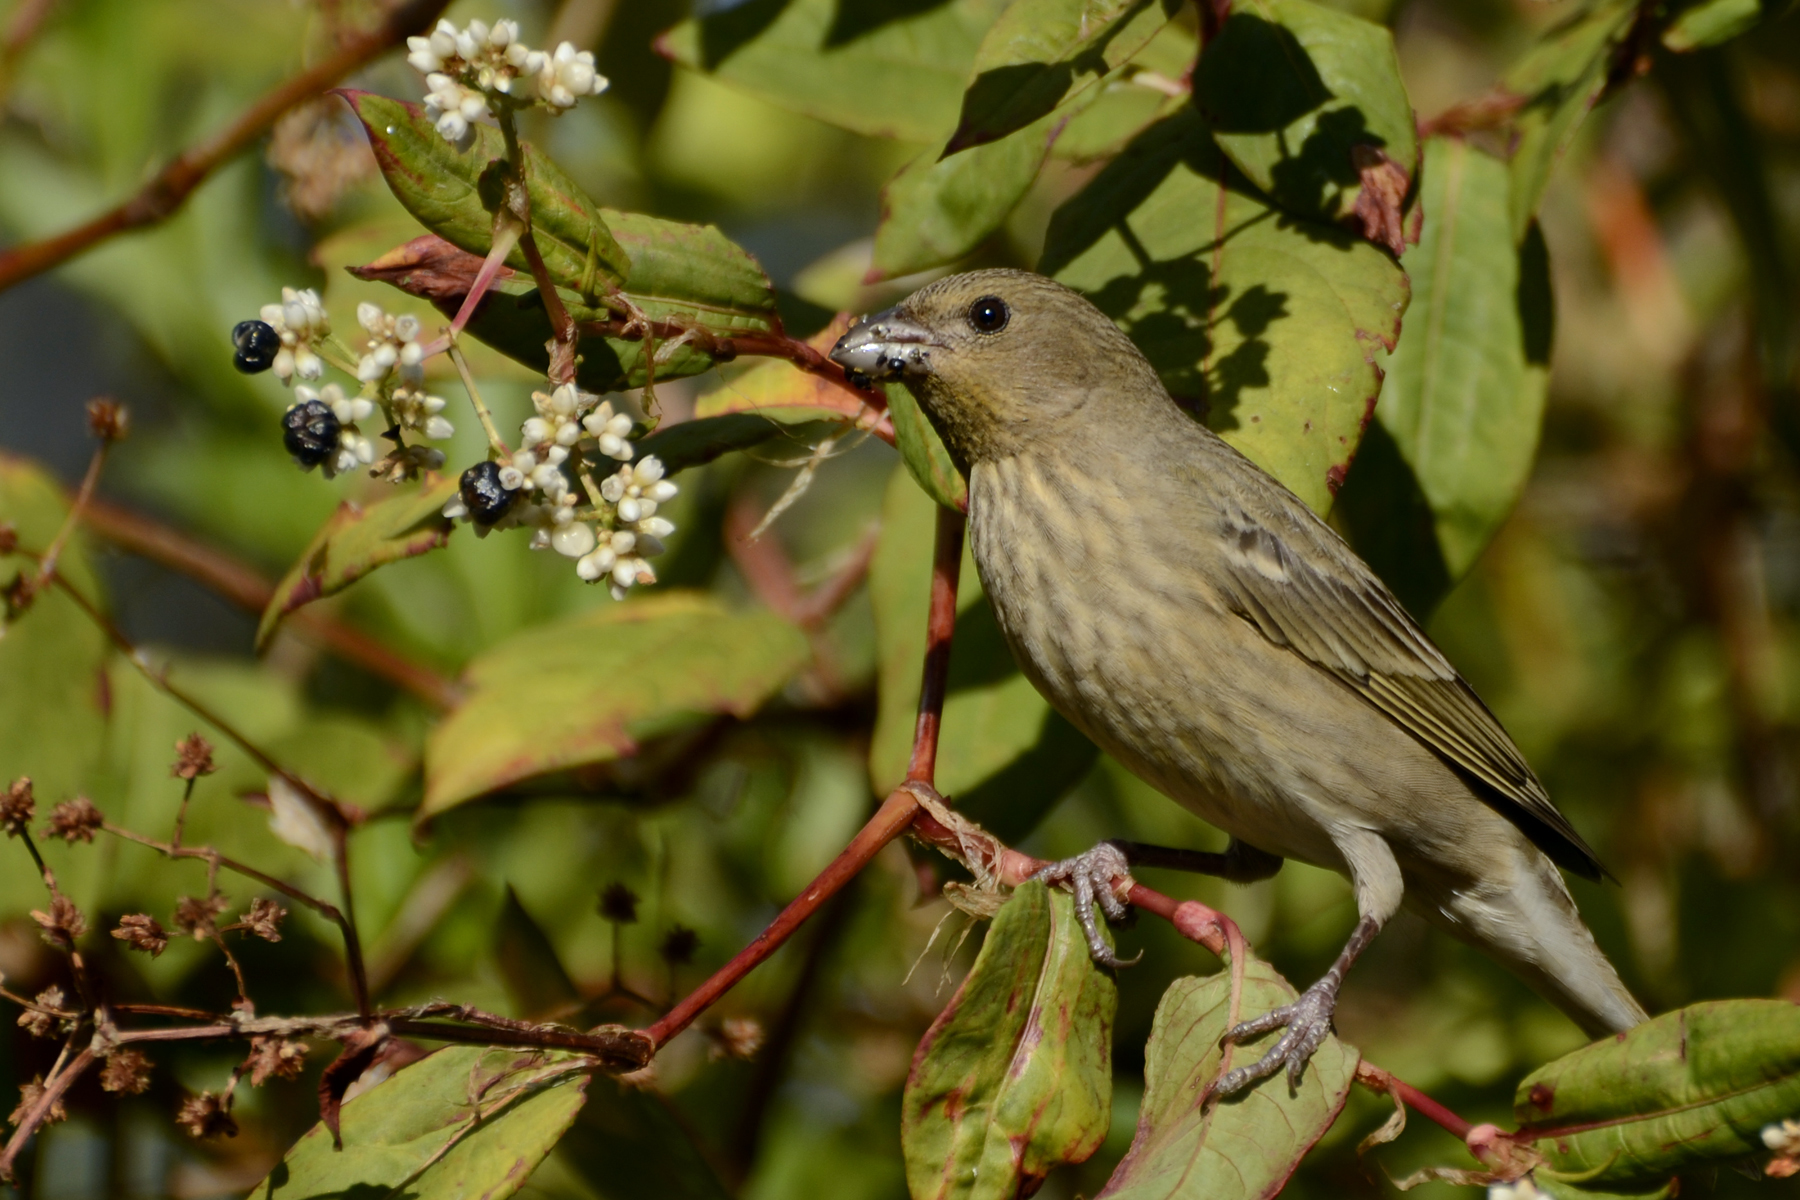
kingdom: Animalia
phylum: Chordata
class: Aves
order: Passeriformes
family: Fringillidae
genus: Carpodacus
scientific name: Carpodacus erythrinus
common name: Common rosefinch
